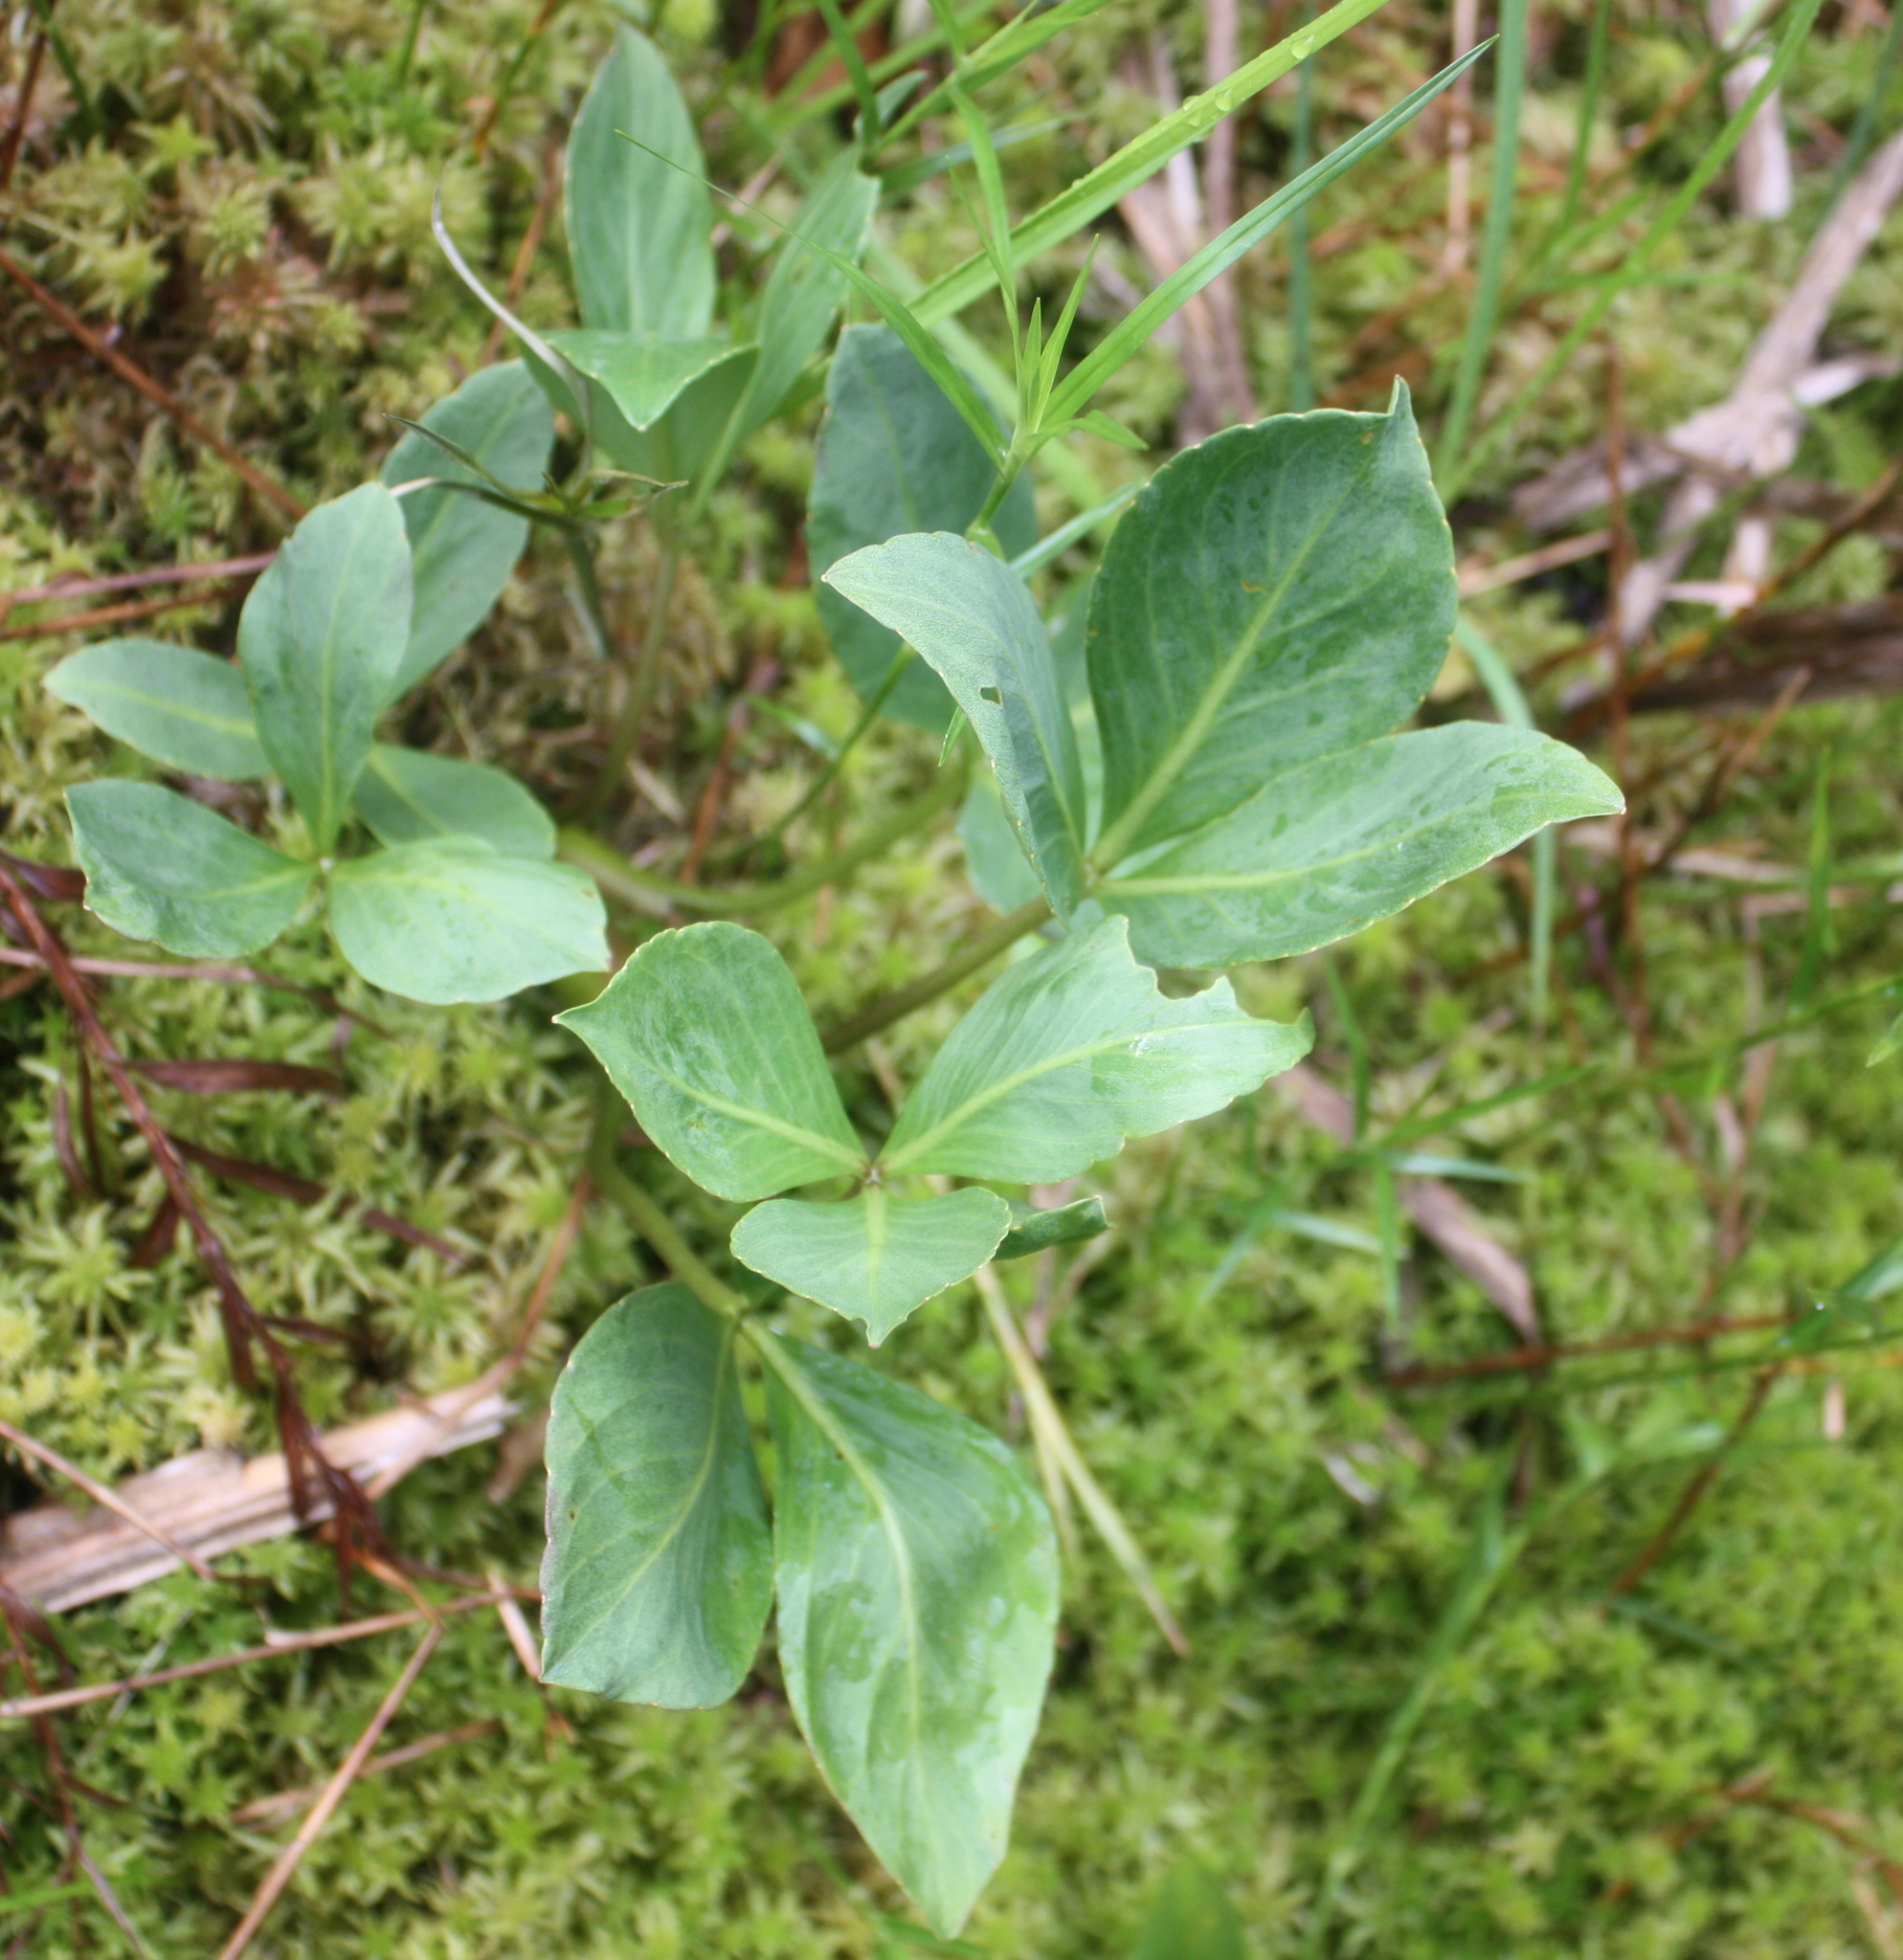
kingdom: Plantae
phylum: Tracheophyta
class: Magnoliopsida
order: Asterales
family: Menyanthaceae
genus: Menyanthes
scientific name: Menyanthes trifoliata
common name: Bogbean
